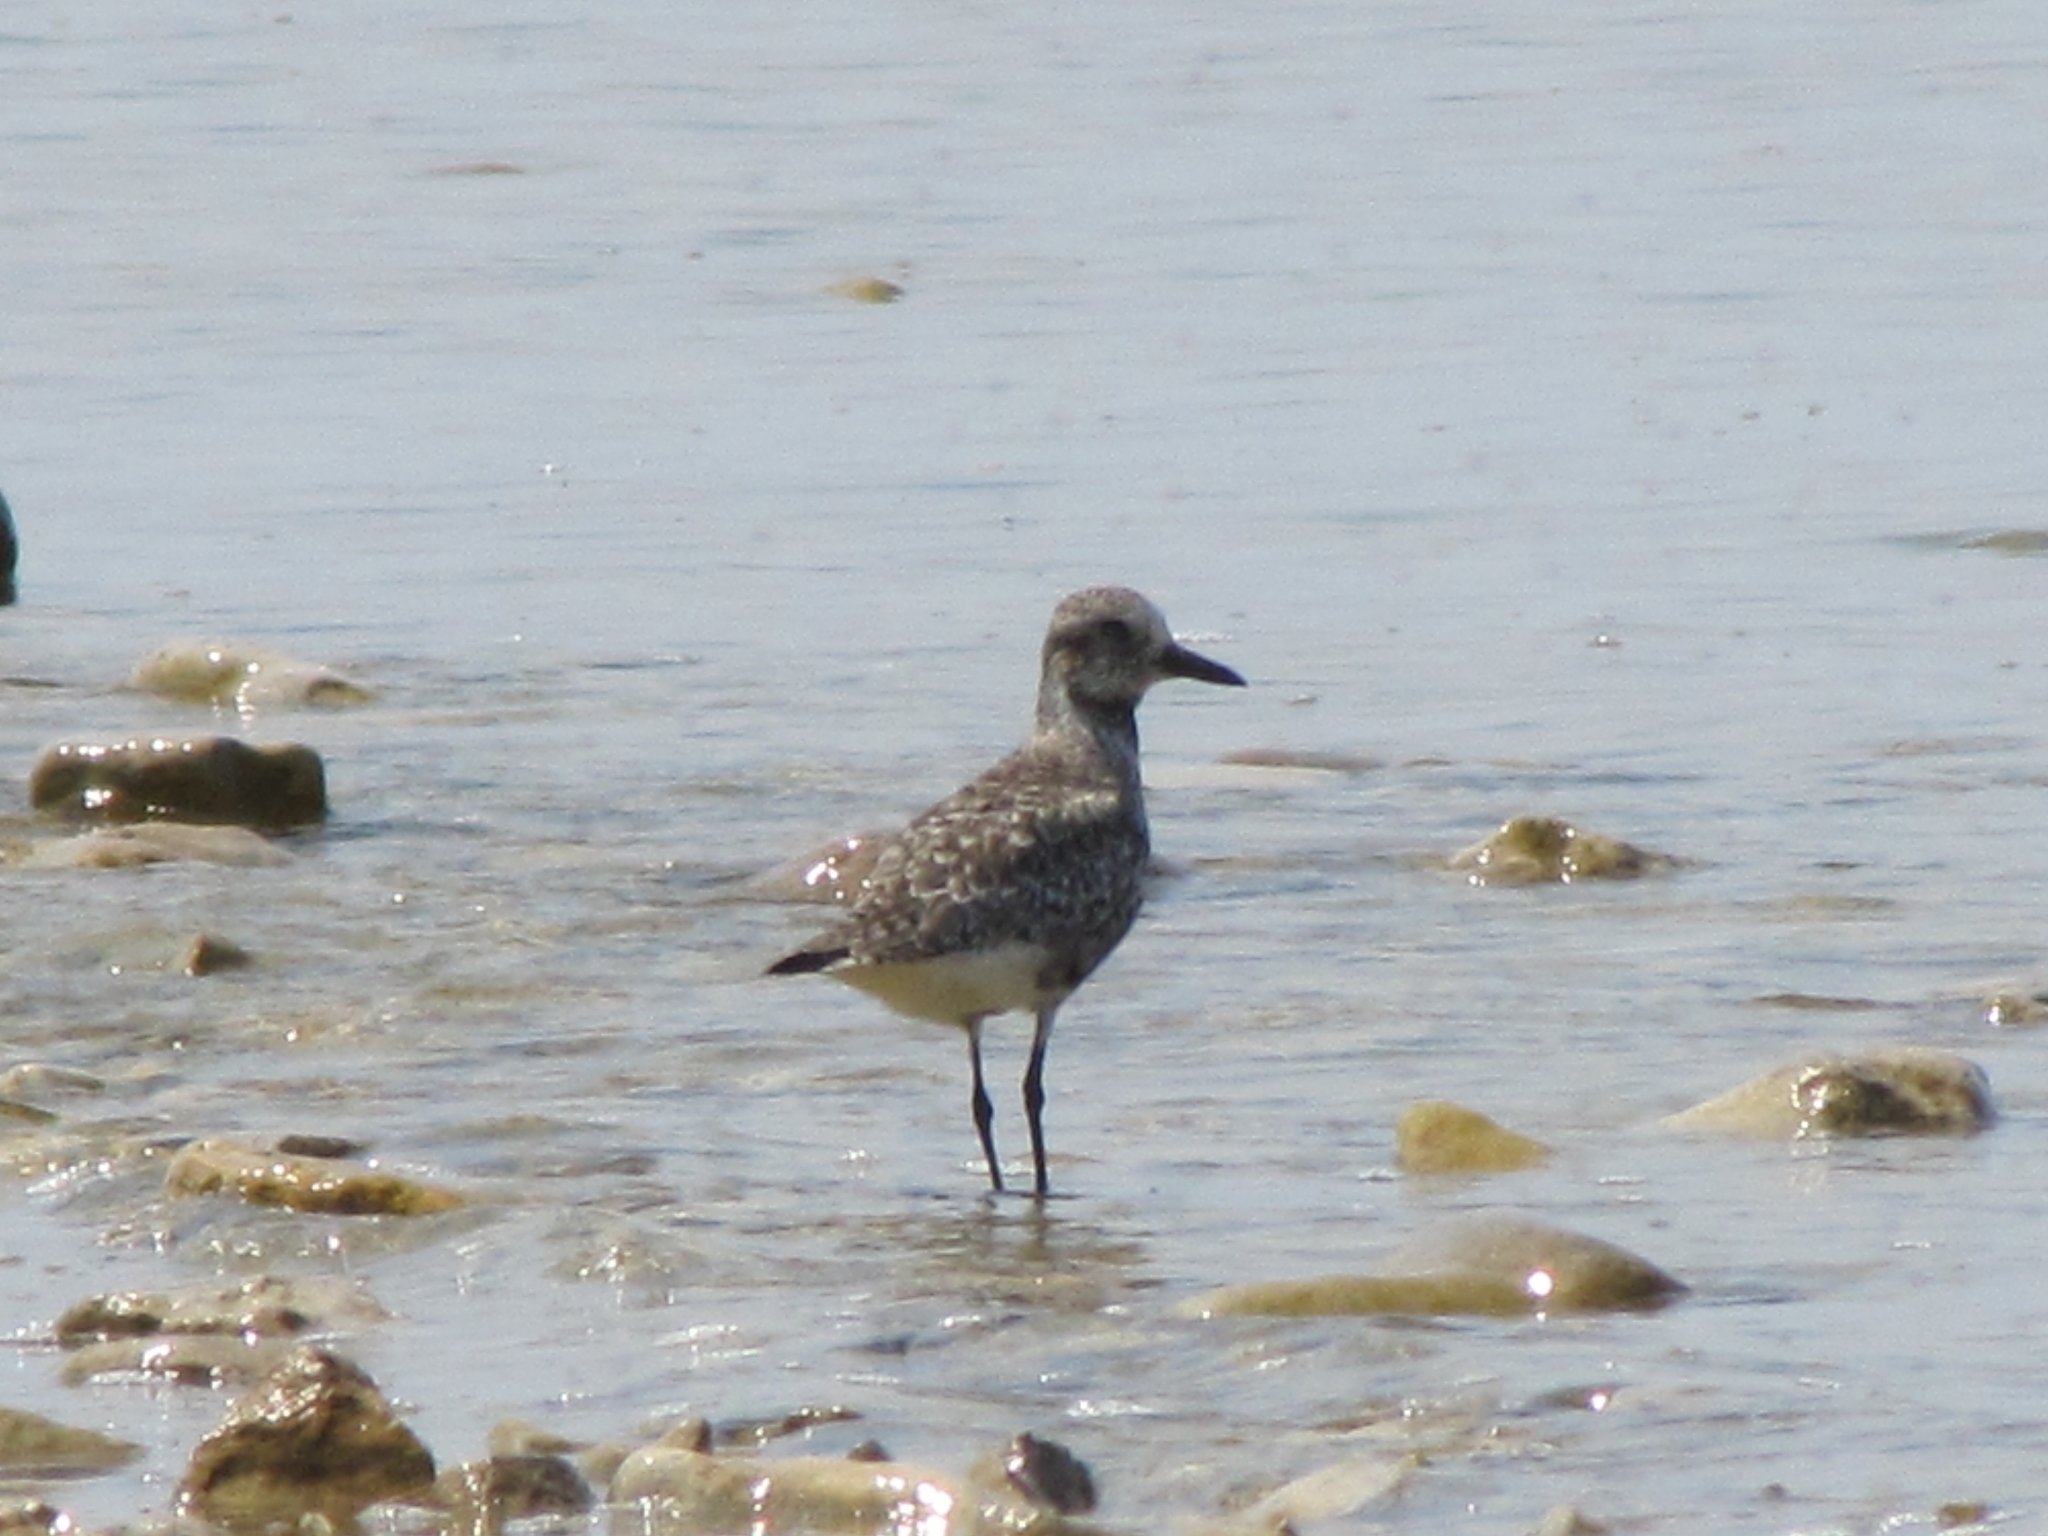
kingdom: Animalia
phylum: Chordata
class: Aves
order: Charadriiformes
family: Charadriidae
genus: Pluvialis
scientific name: Pluvialis squatarola
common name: Grey plover
